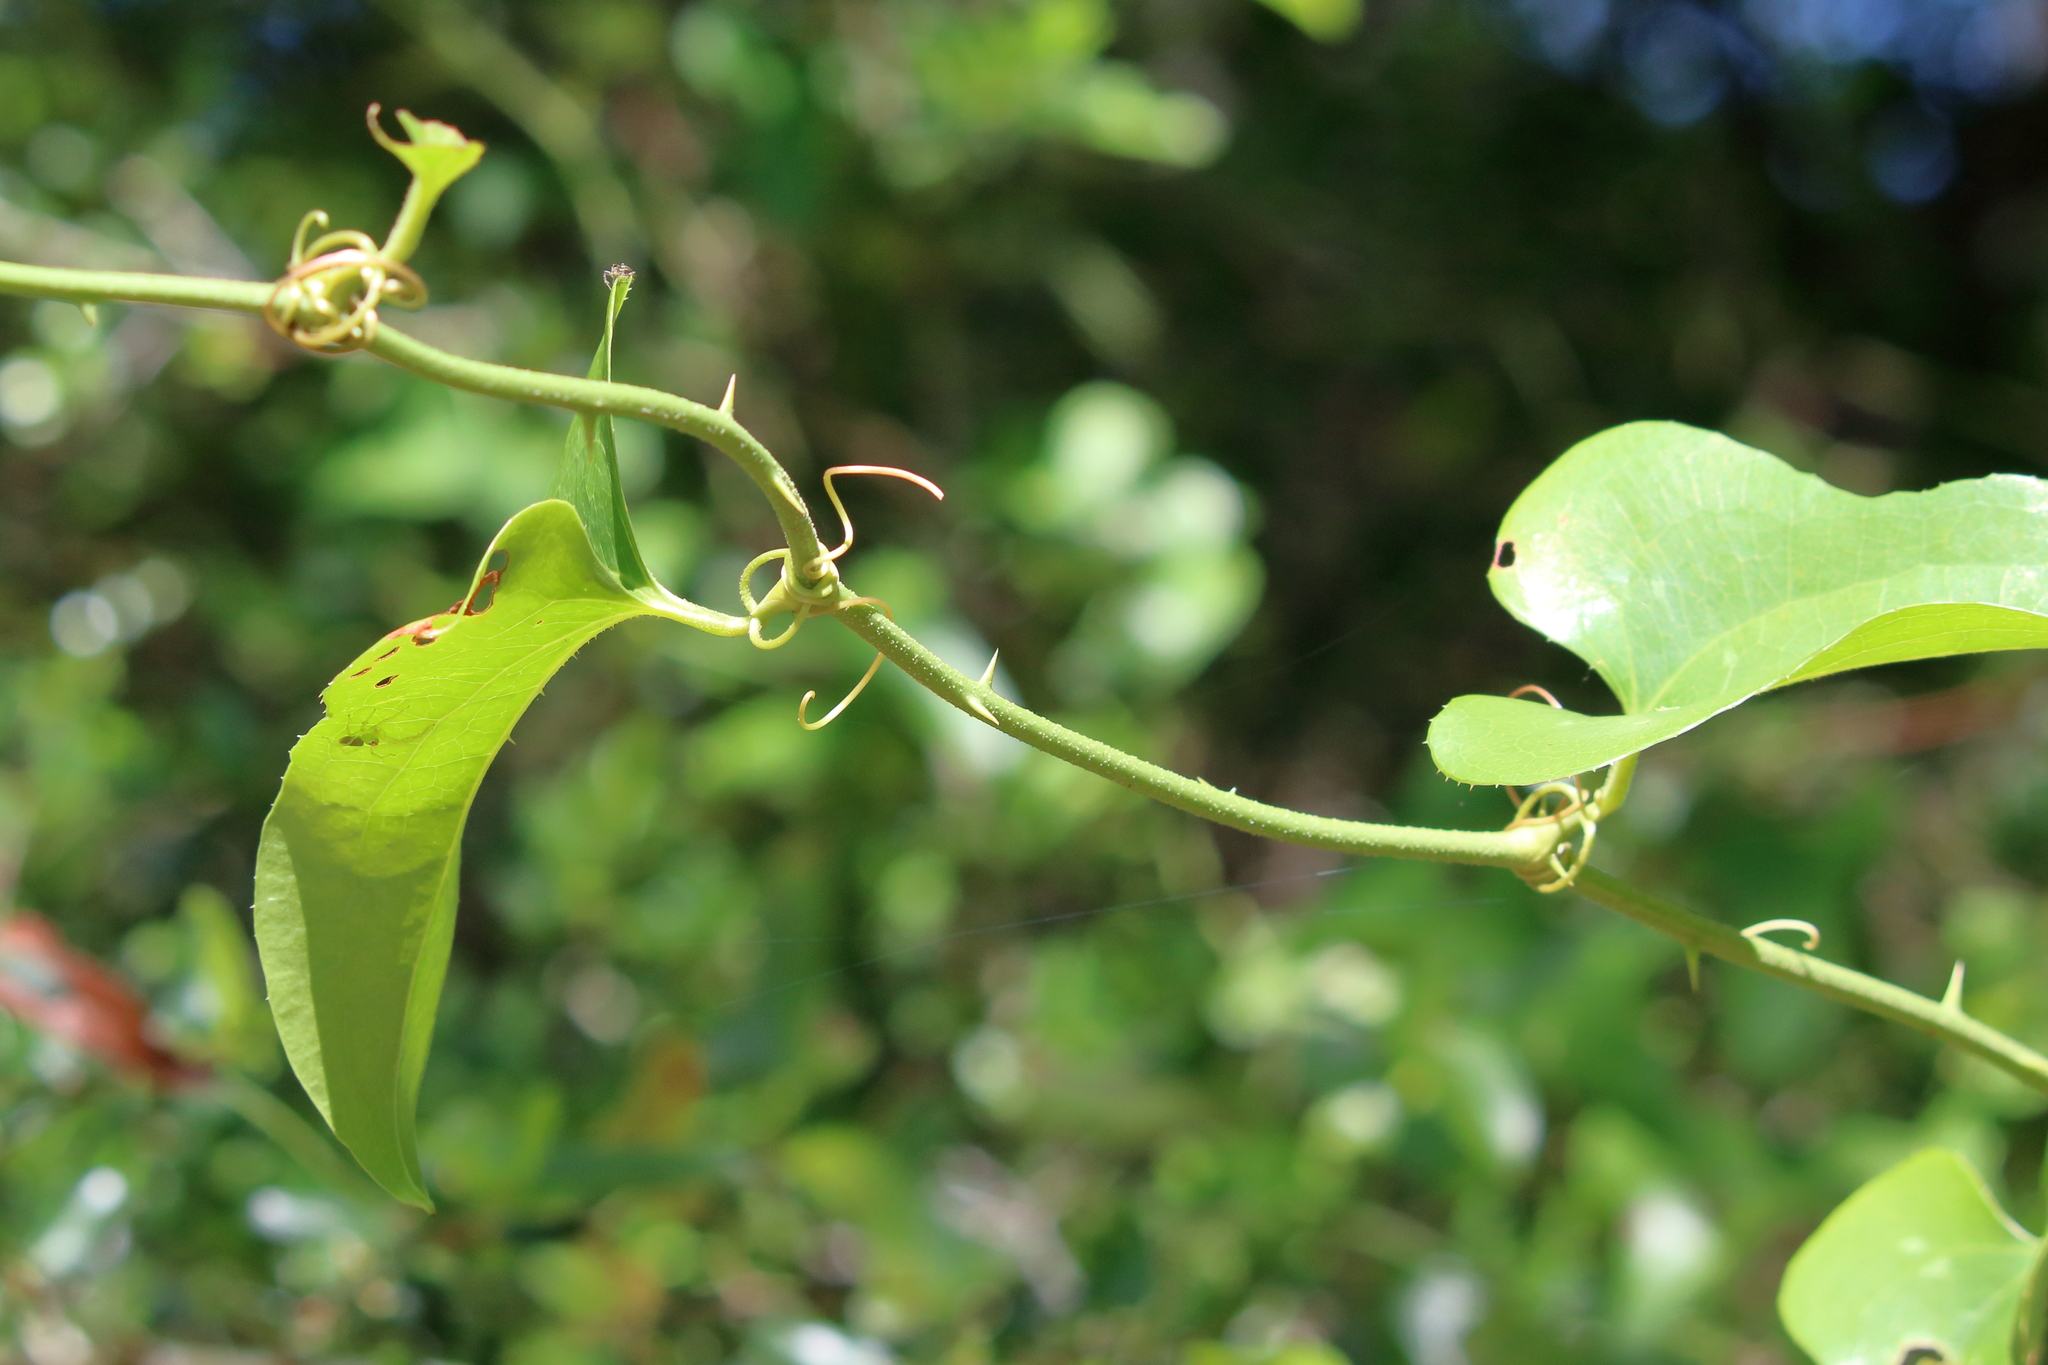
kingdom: Plantae
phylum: Tracheophyta
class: Liliopsida
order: Liliales
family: Smilacaceae
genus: Smilax
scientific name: Smilax bona-nox
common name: Catbrier
